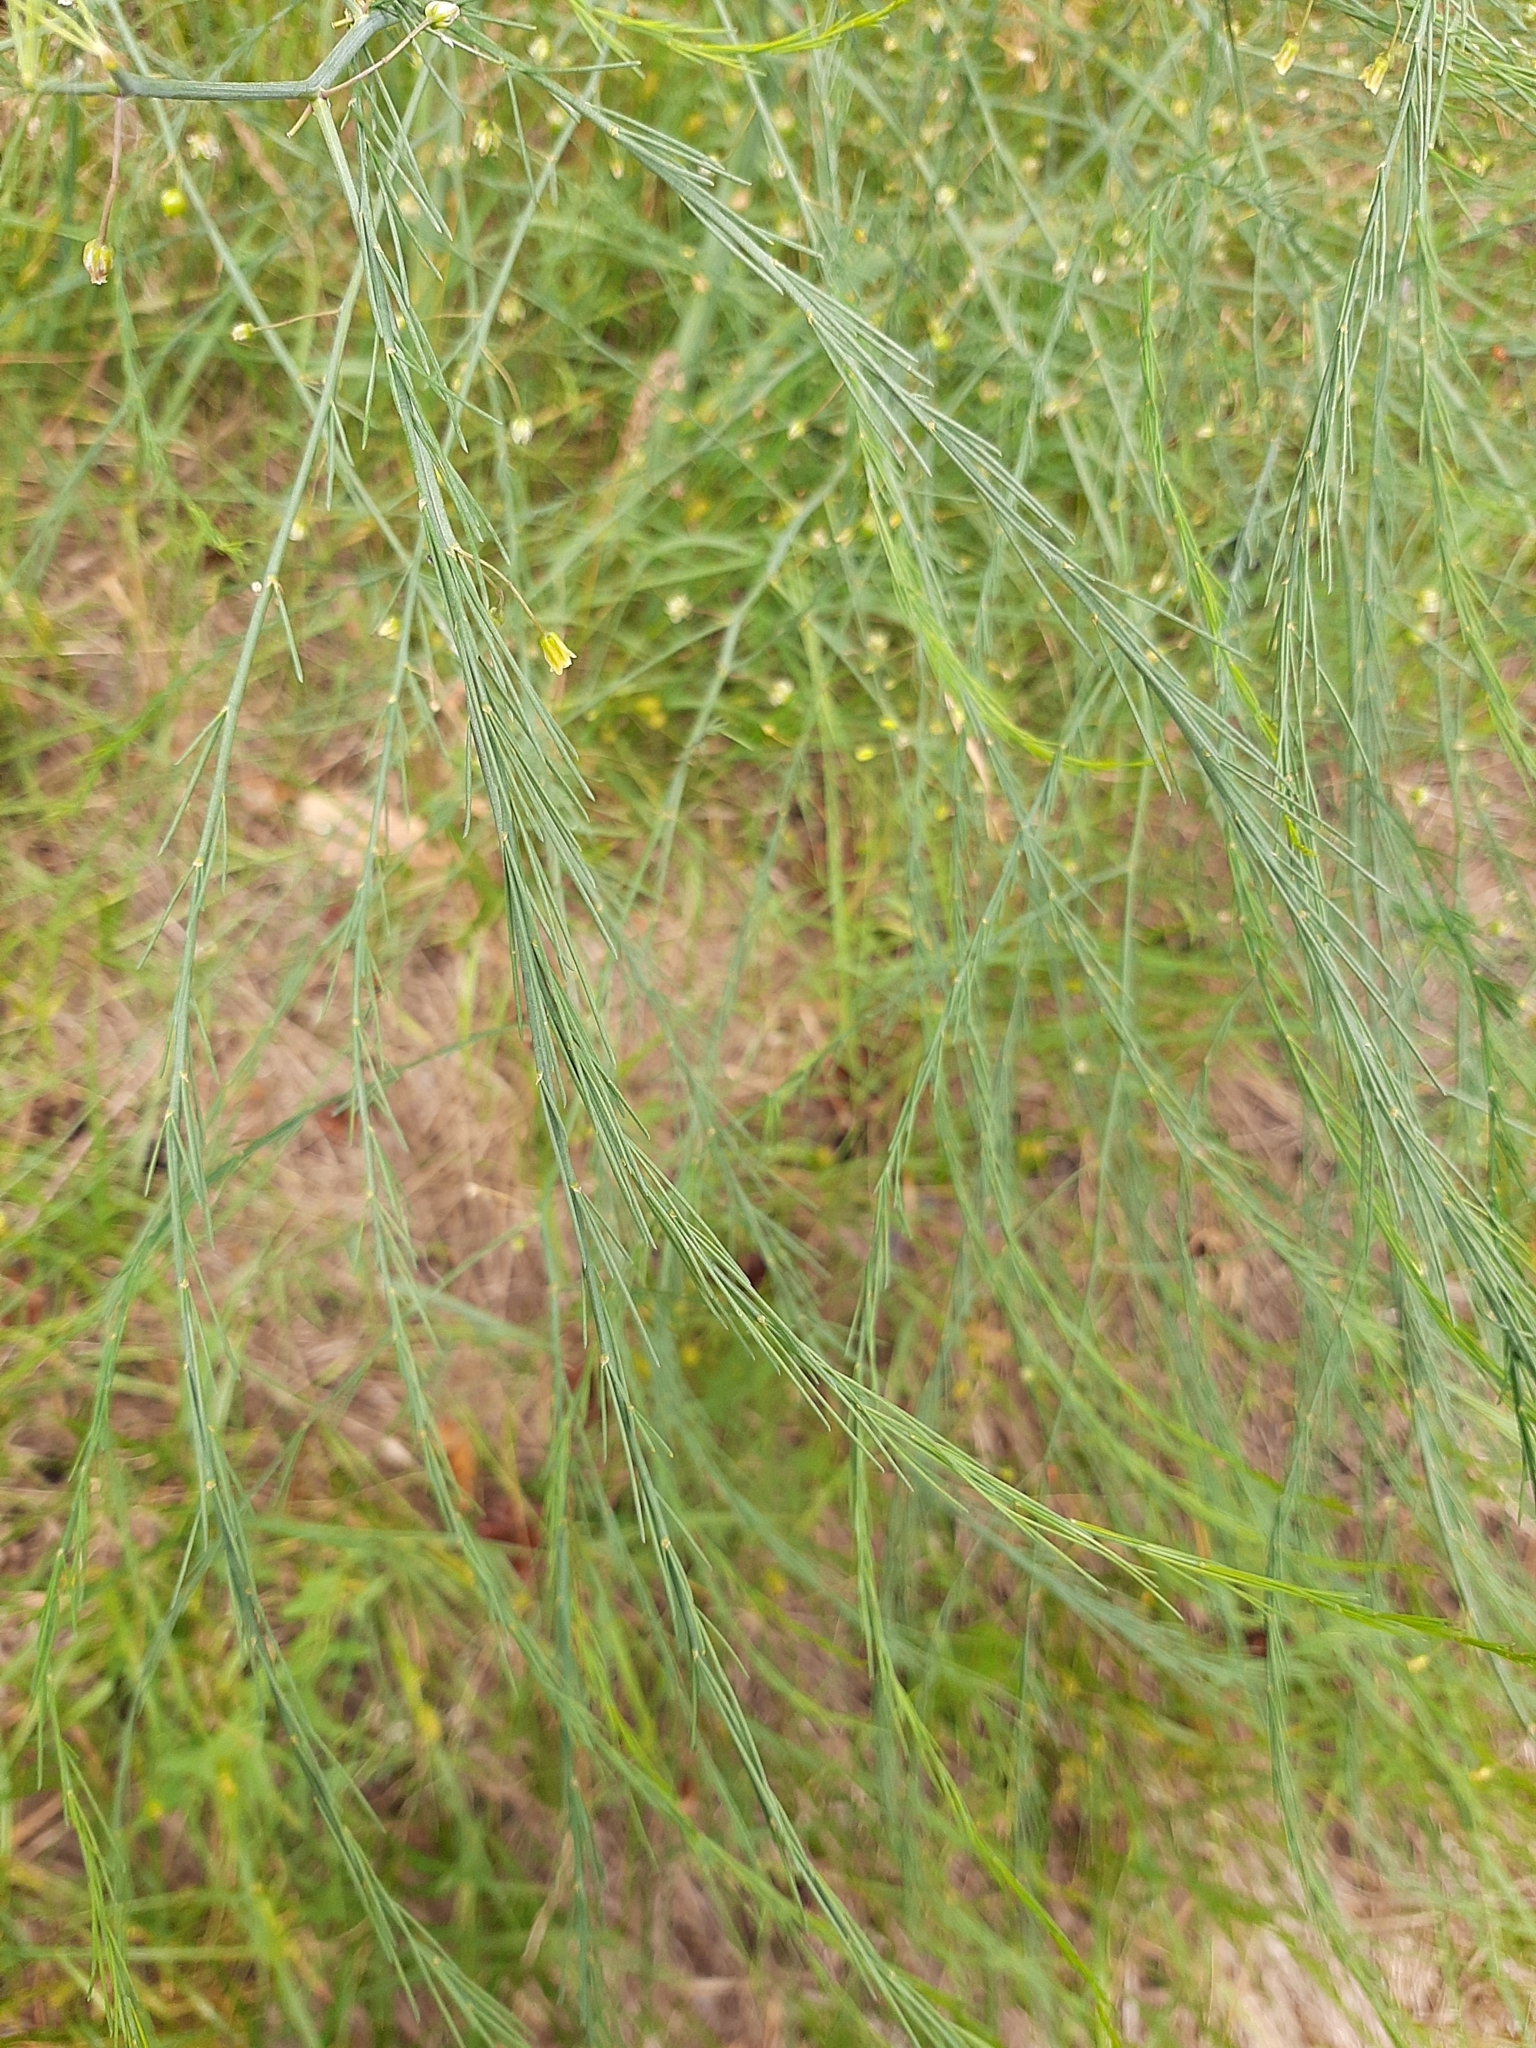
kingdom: Plantae
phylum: Tracheophyta
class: Liliopsida
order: Asparagales
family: Asparagaceae
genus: Asparagus
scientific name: Asparagus officinalis
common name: Garden asparagus
